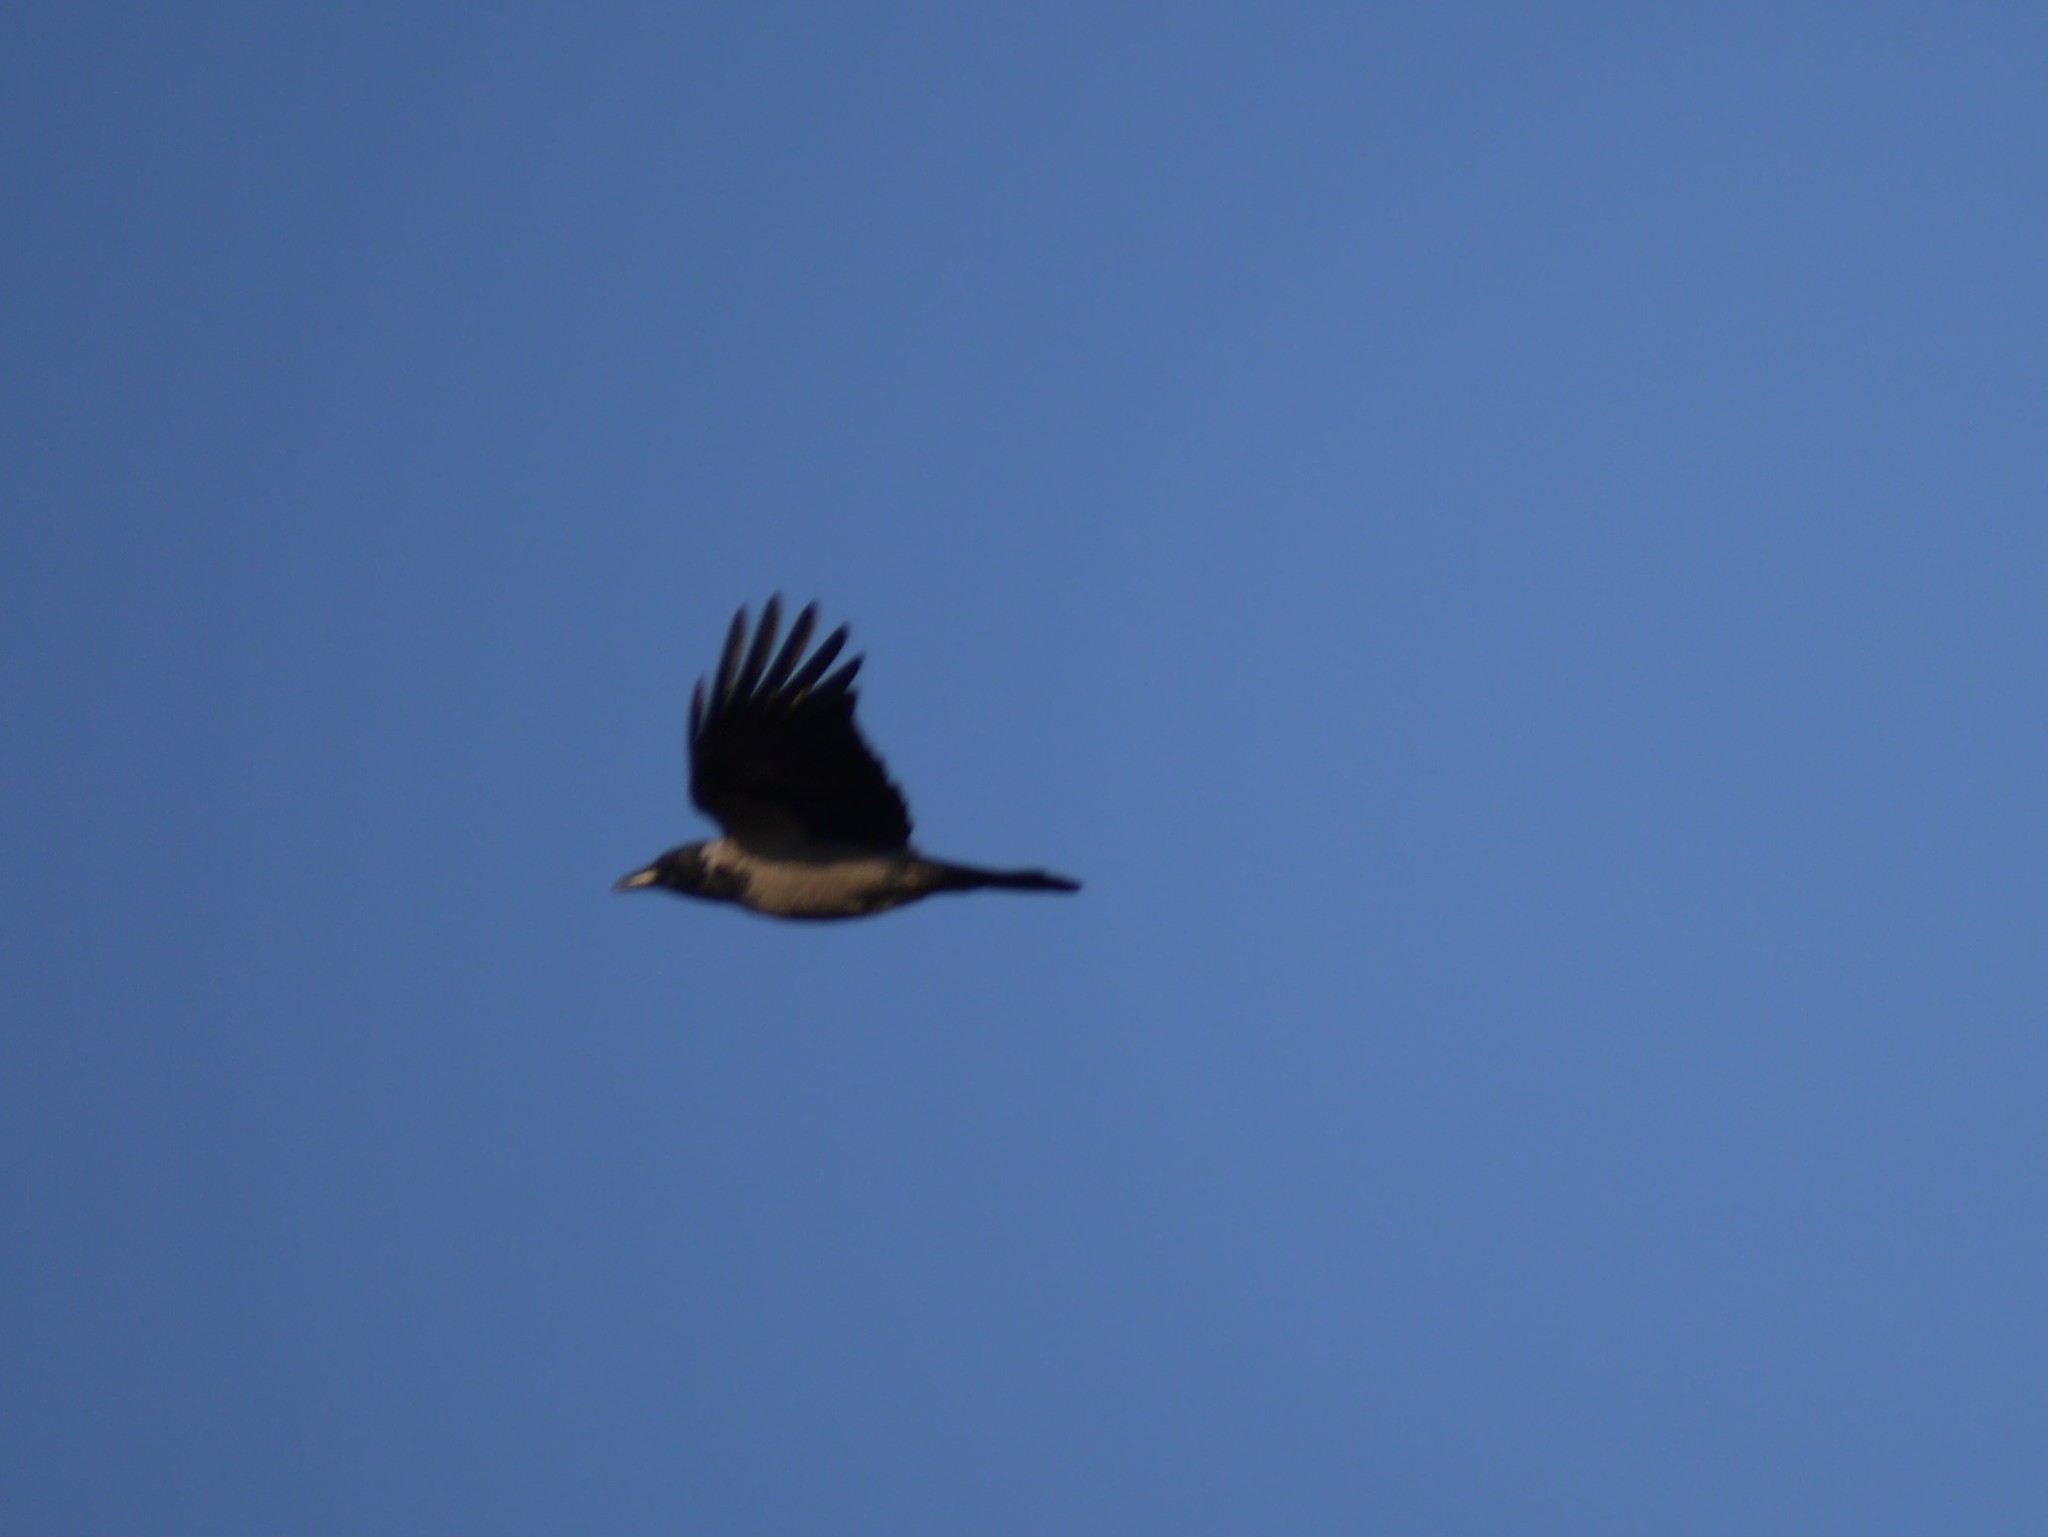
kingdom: Animalia
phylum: Chordata
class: Aves
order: Passeriformes
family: Corvidae
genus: Corvus
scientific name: Corvus cornix
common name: Hooded crow
